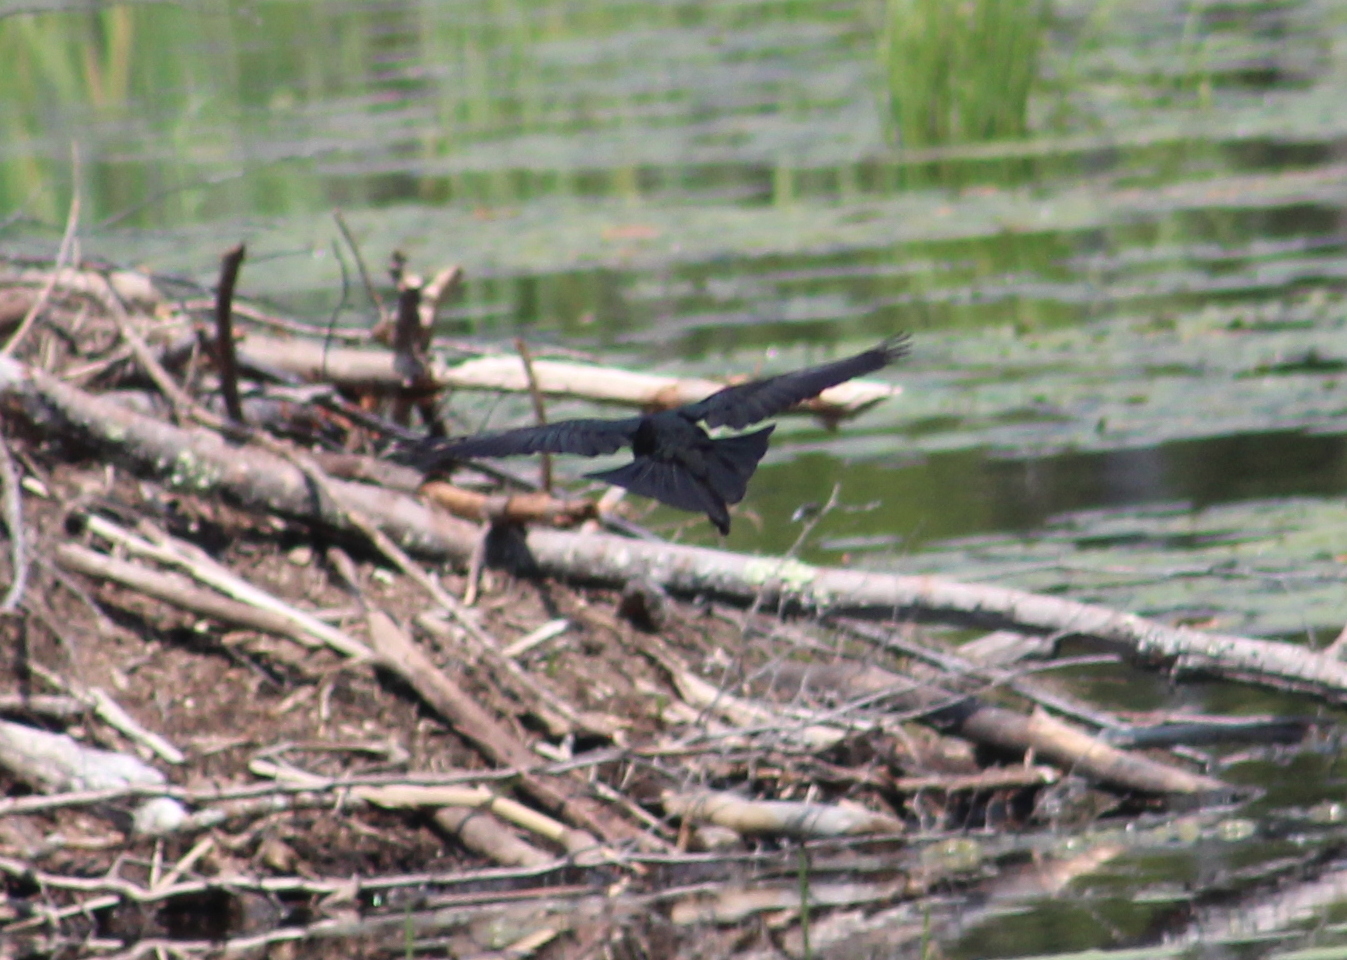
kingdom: Animalia
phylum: Chordata
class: Aves
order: Passeriformes
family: Icteridae
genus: Quiscalus
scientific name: Quiscalus quiscula
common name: Common grackle
